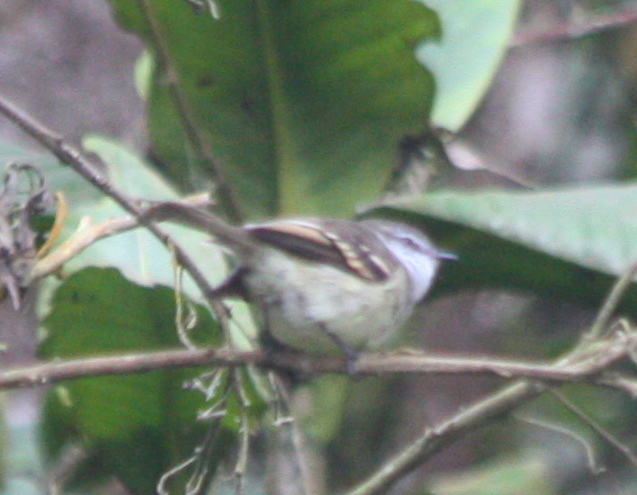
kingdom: Animalia
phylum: Chordata
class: Aves
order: Passeriformes
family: Tyrannidae
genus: Mecocerculus
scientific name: Mecocerculus leucophrys
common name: White-throated tyrannulet
